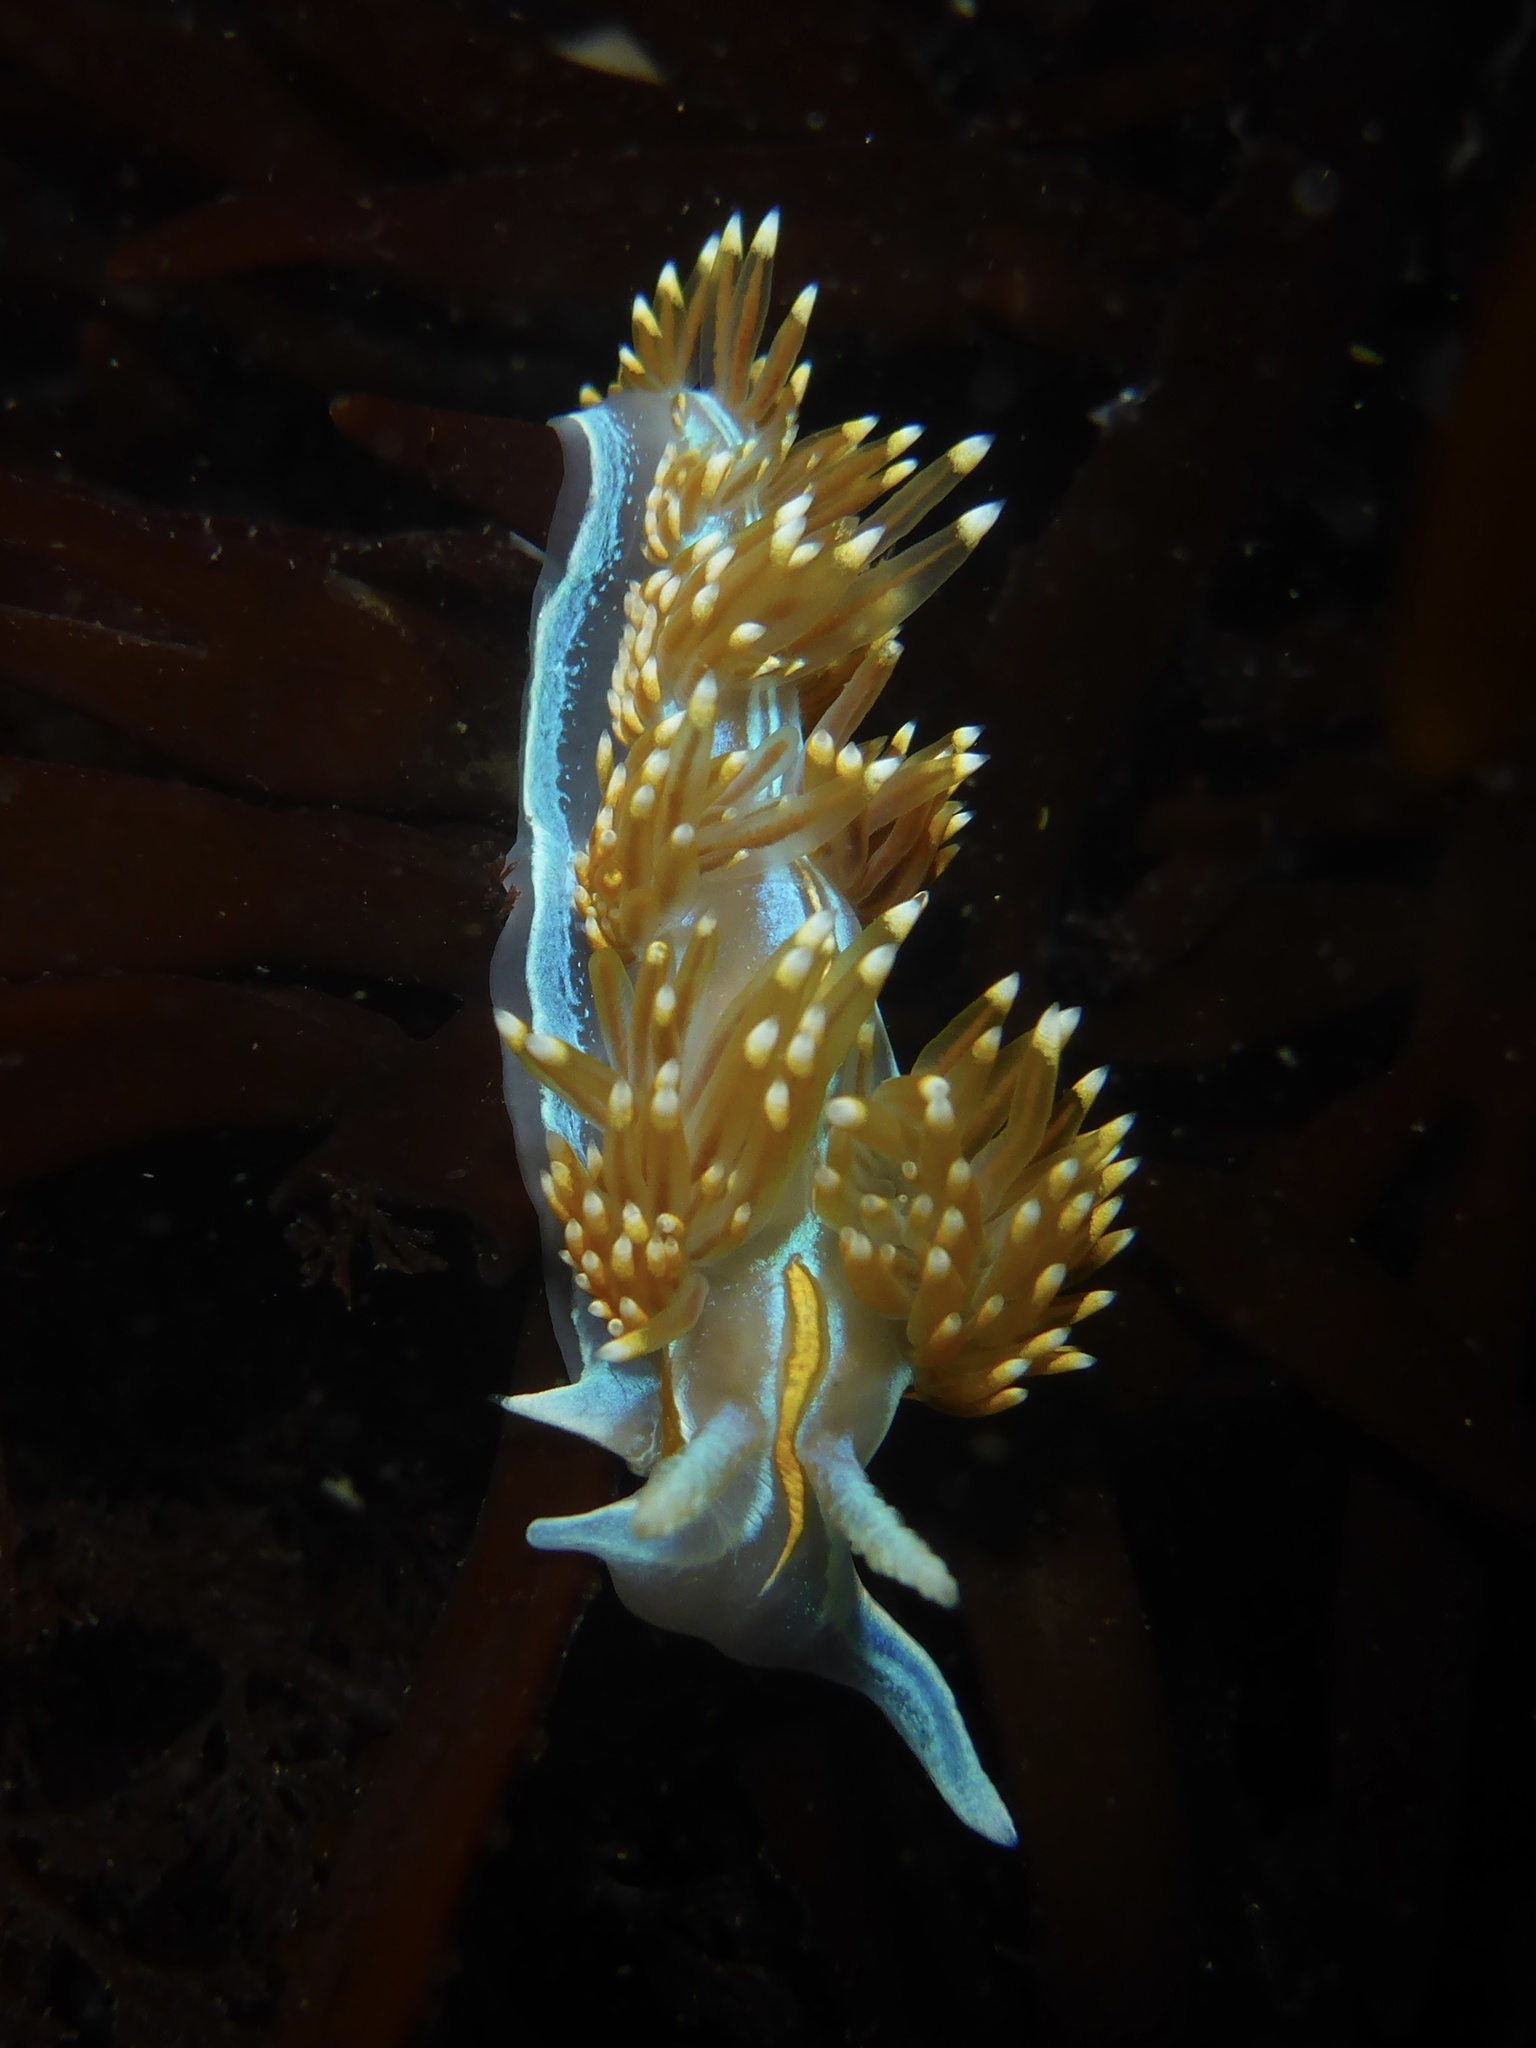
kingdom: Animalia
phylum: Mollusca
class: Gastropoda
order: Nudibranchia
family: Myrrhinidae
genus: Hermissenda
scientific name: Hermissenda opalescens
